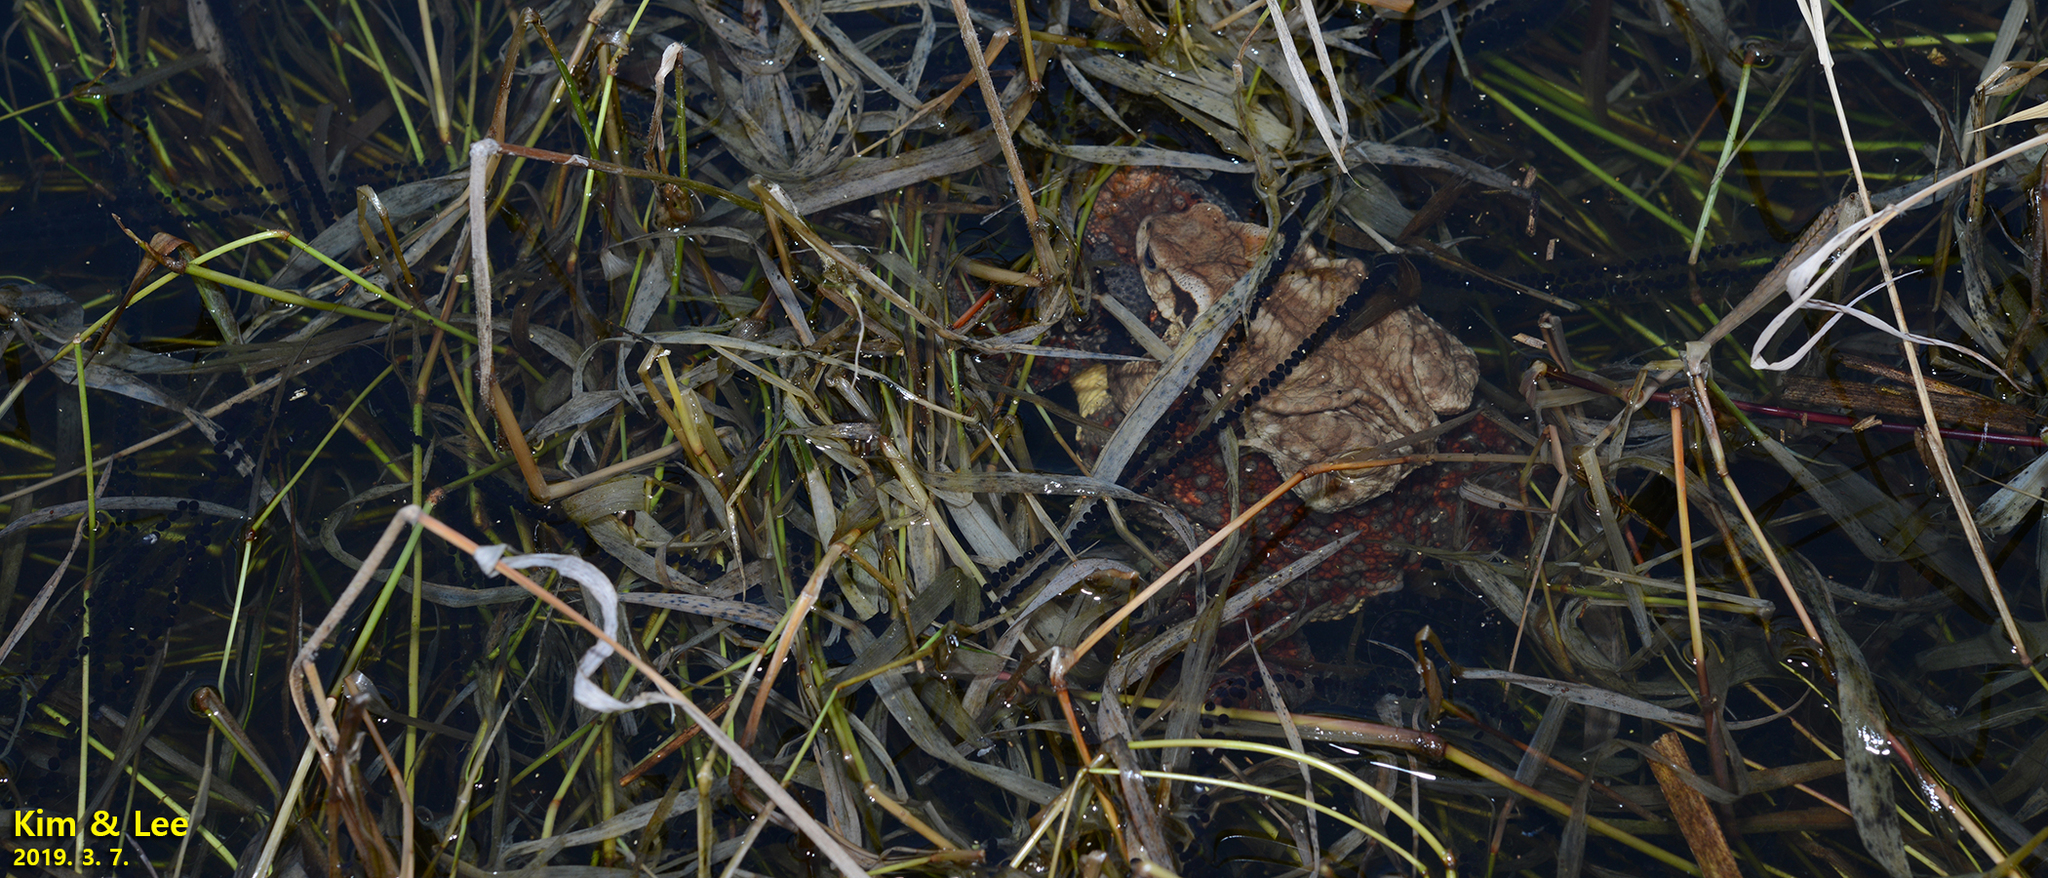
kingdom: Animalia
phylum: Chordata
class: Amphibia
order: Anura
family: Bufonidae
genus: Bufo
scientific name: Bufo gargarizans
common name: Asiatic toad
